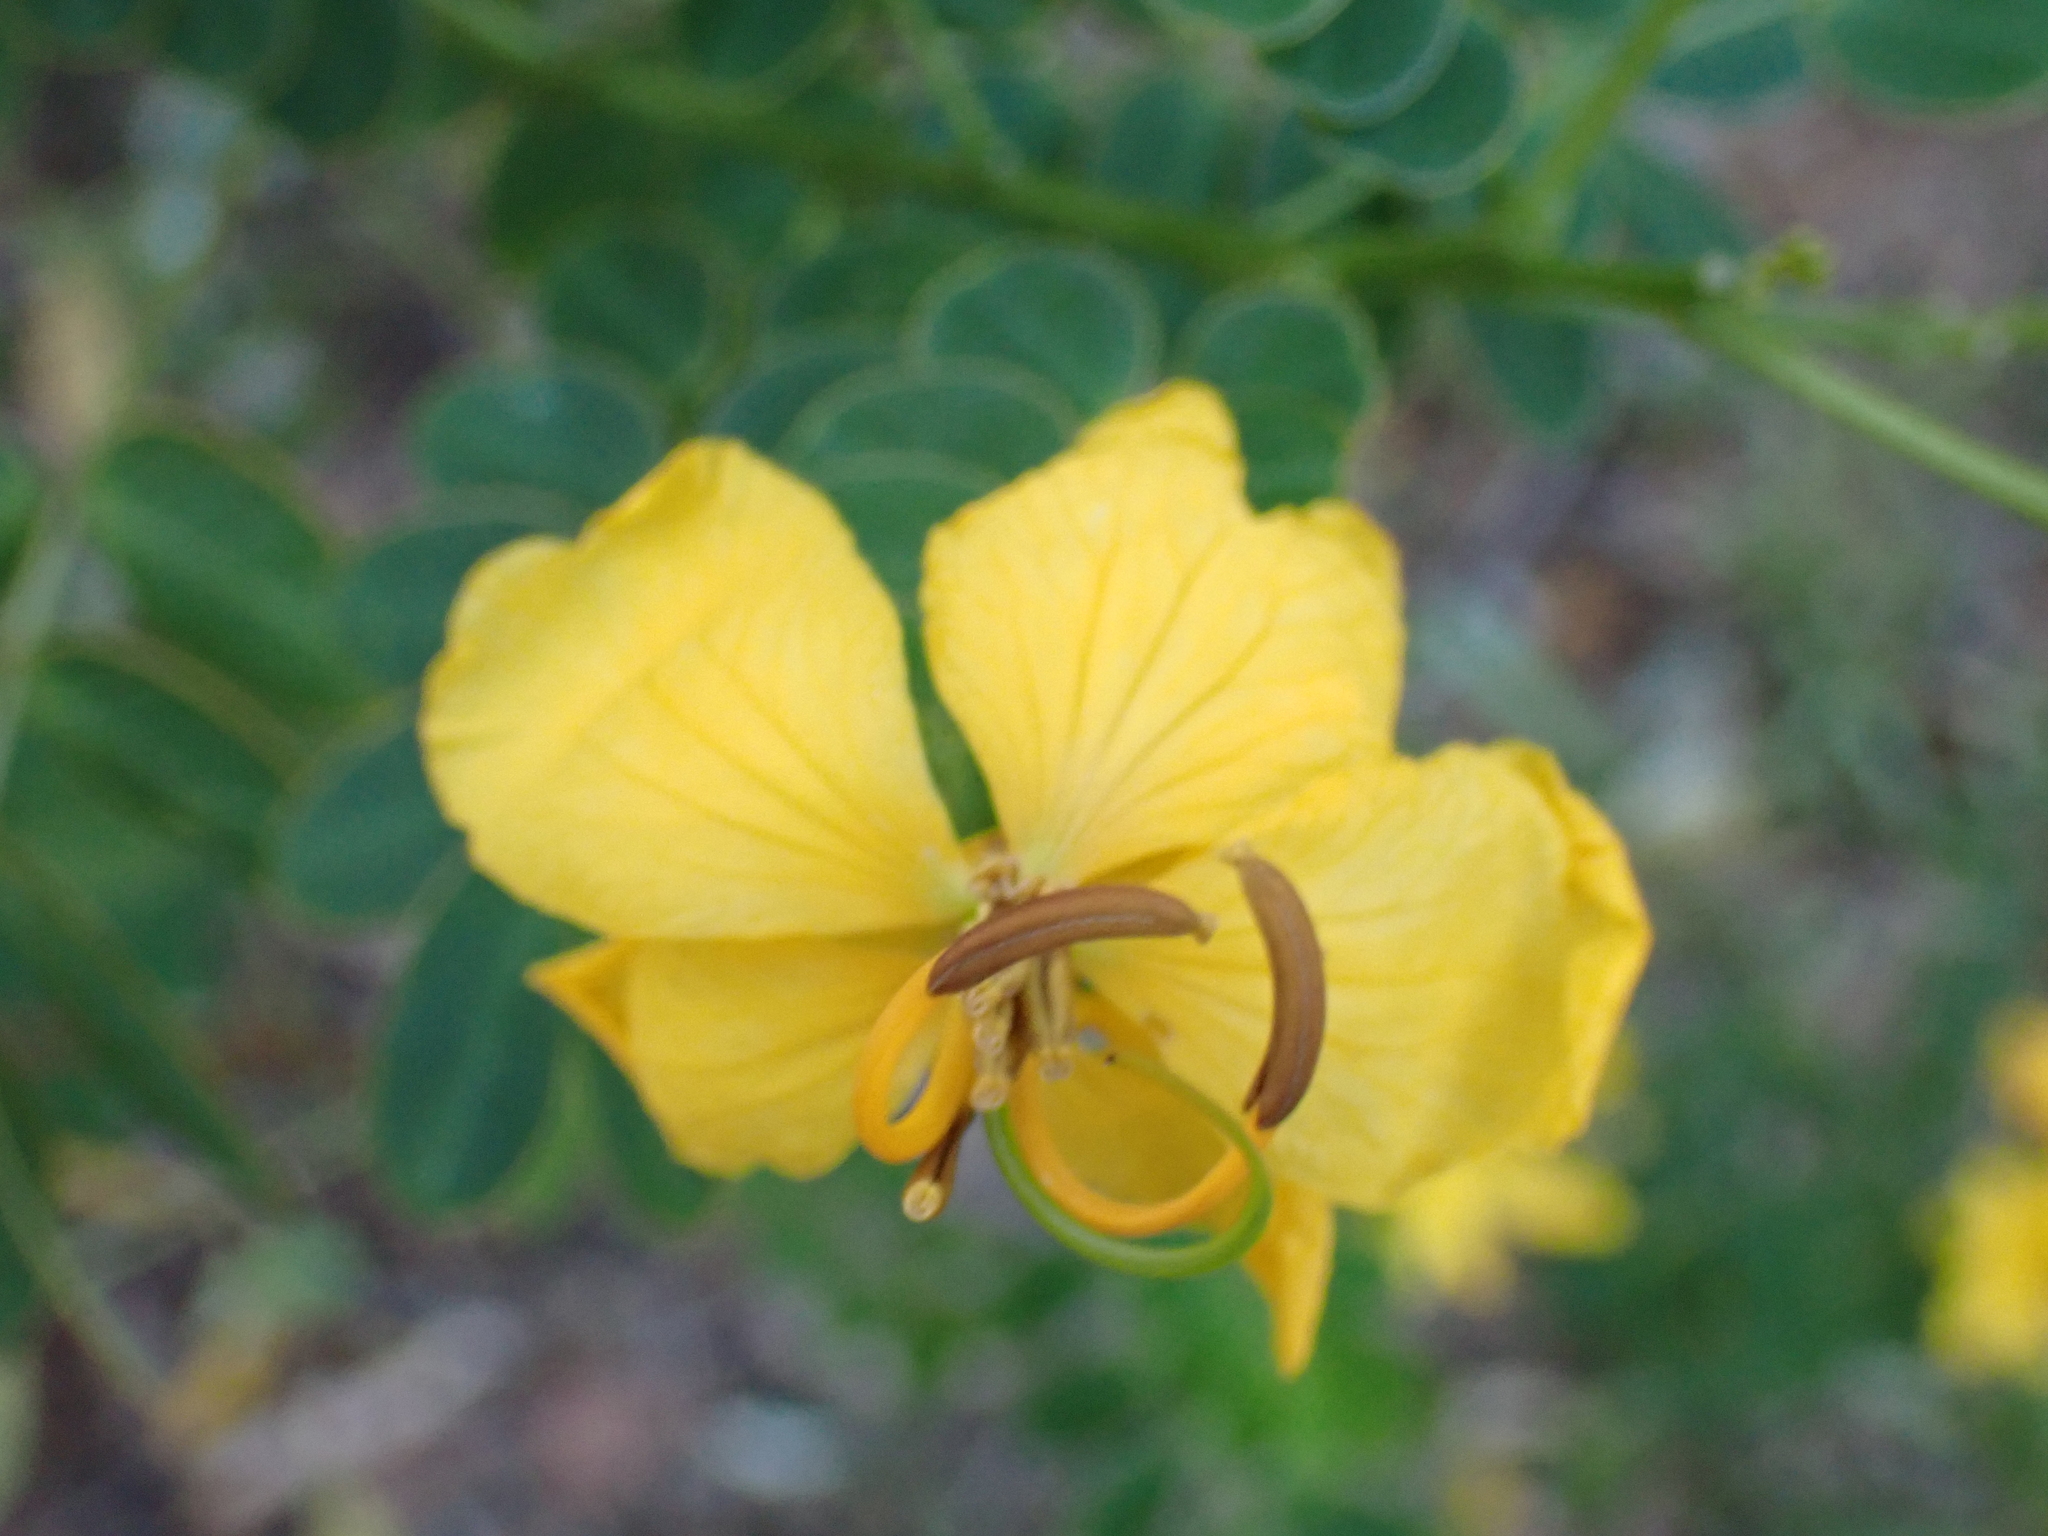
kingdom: Plantae
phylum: Tracheophyta
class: Magnoliopsida
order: Fabales
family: Fabaceae
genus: Senna
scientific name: Senna pendula
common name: Easter cassia
